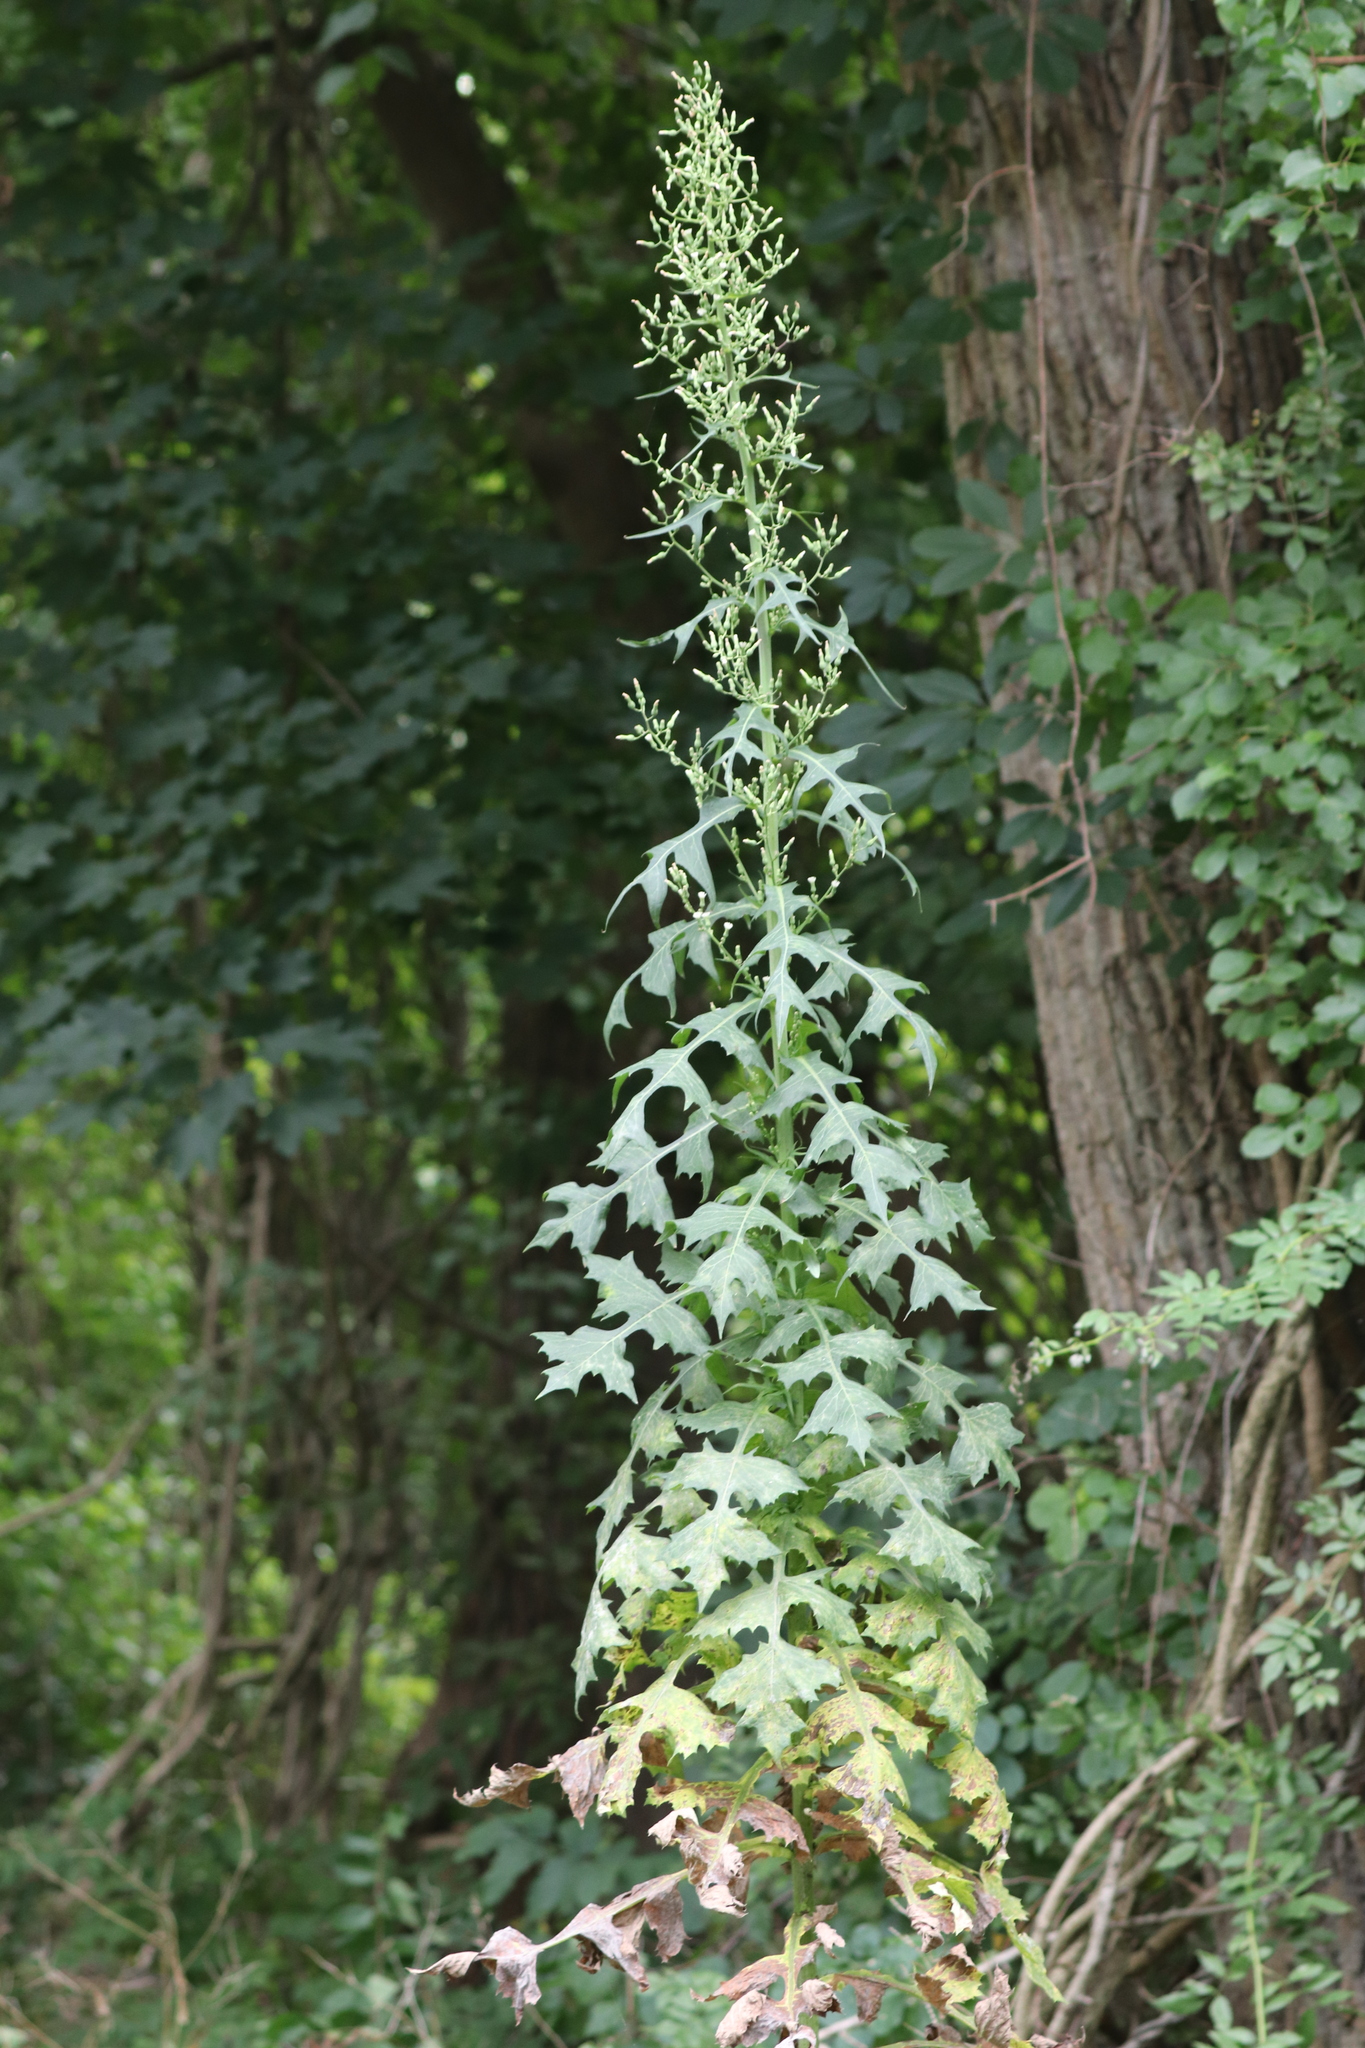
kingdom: Plantae
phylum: Tracheophyta
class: Magnoliopsida
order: Asterales
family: Asteraceae
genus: Lactuca
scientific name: Lactuca biennis
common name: Blue wood lettuce
